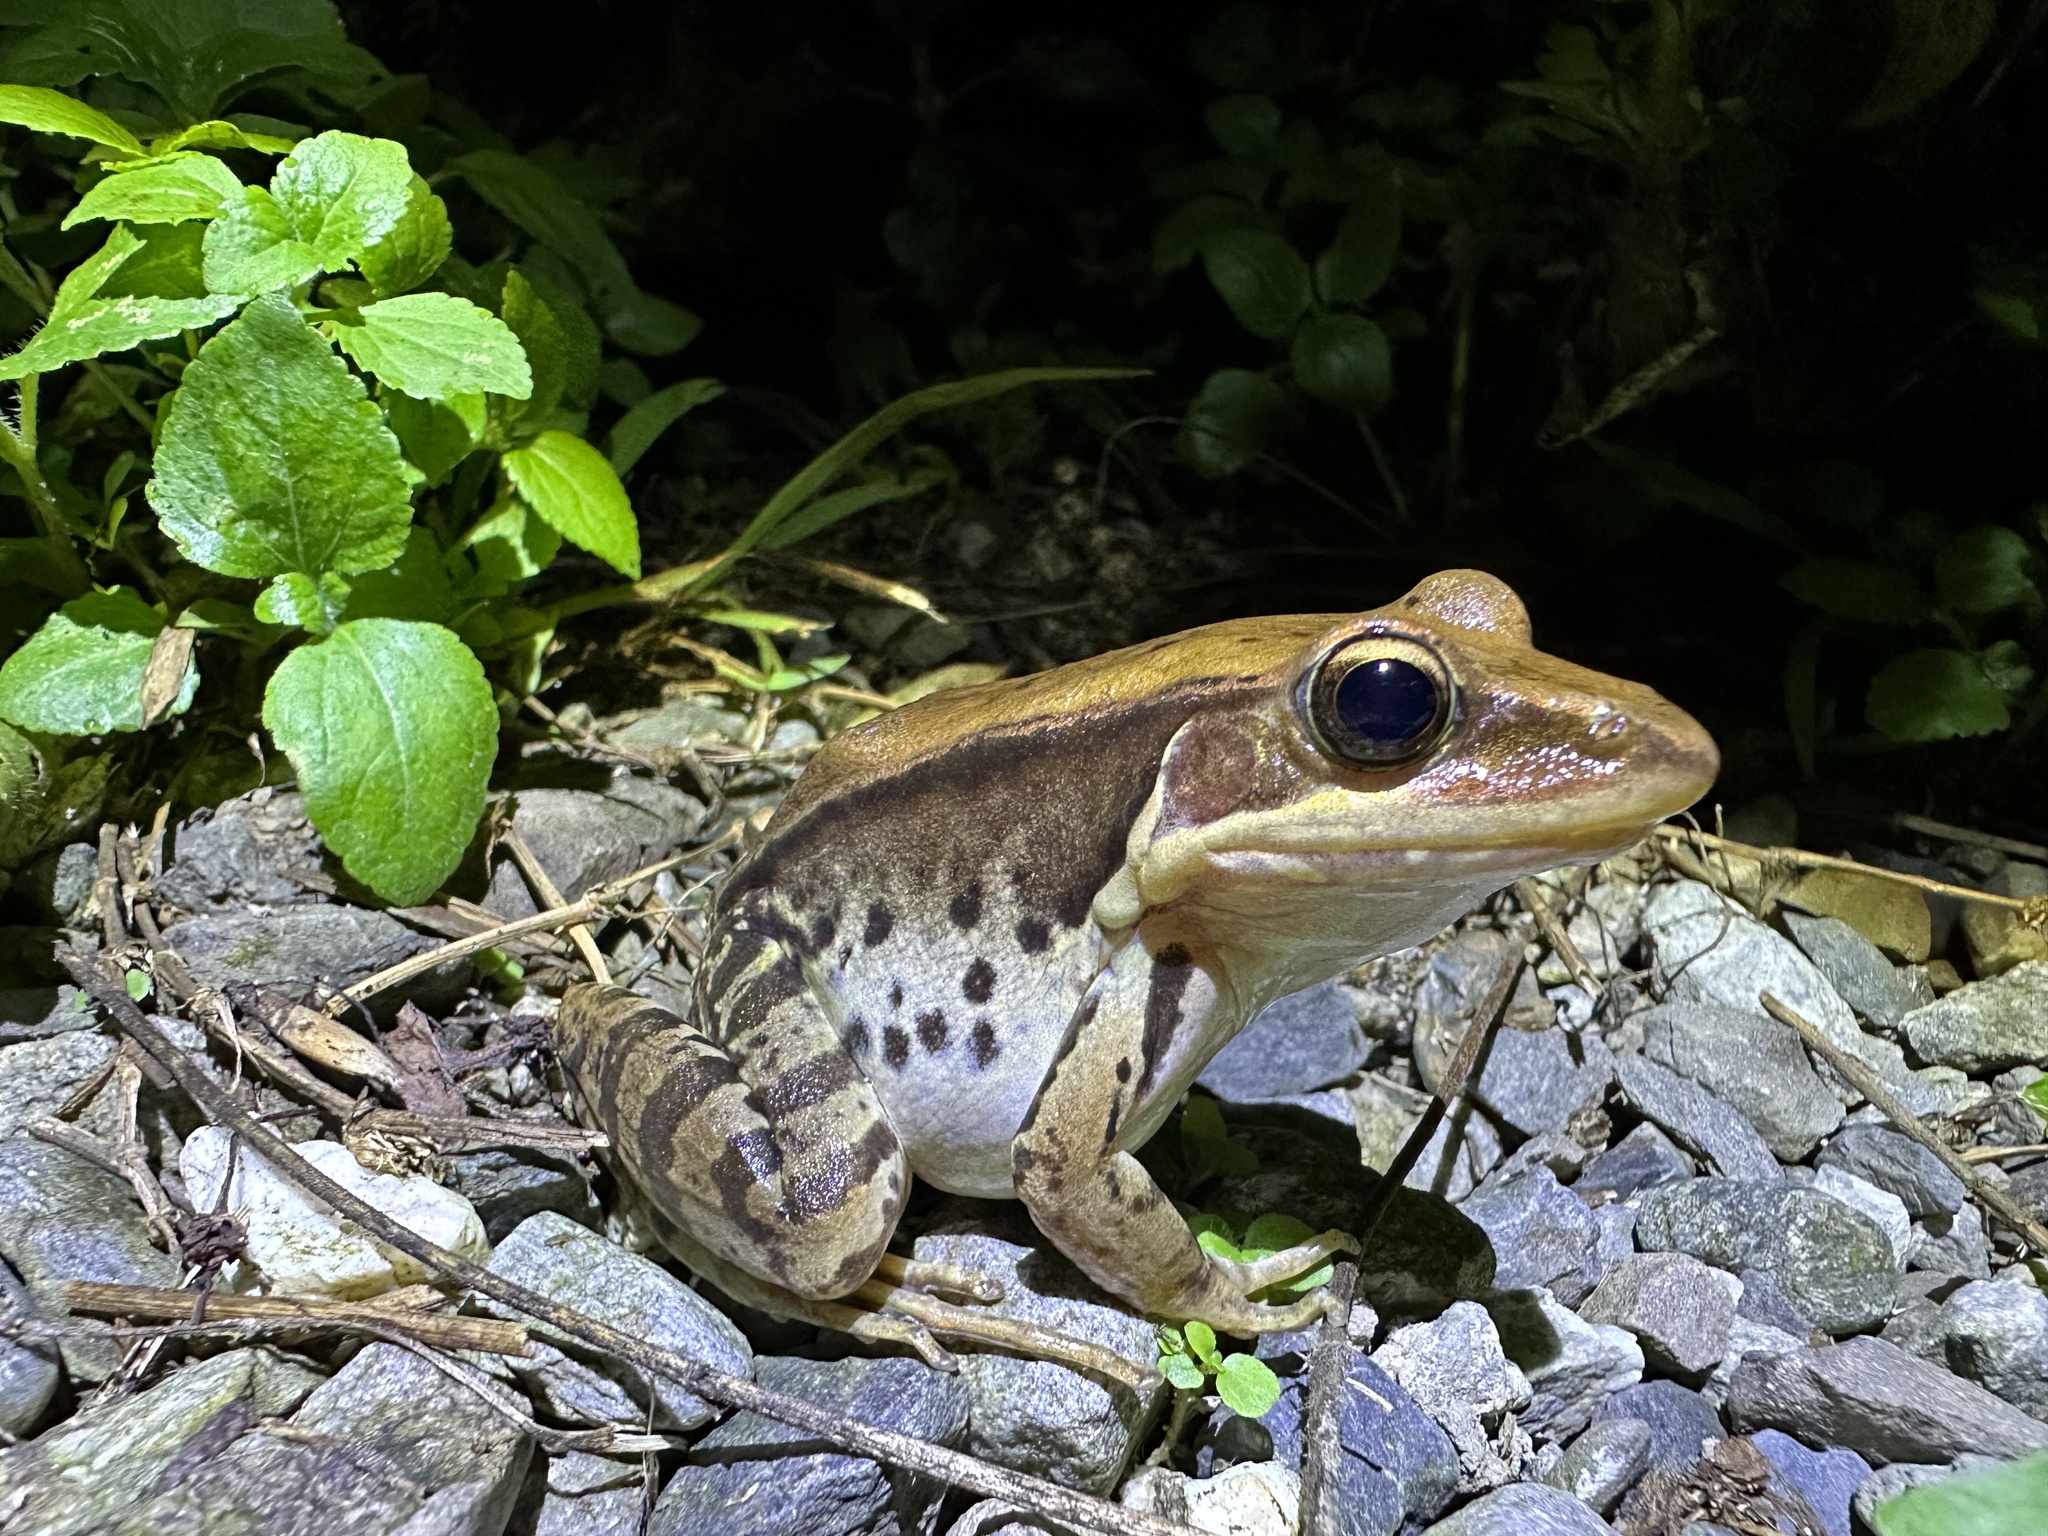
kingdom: Animalia
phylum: Chordata
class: Amphibia
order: Anura
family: Ranidae
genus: Sylvirana
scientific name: Sylvirana guentheri
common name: Guenther's amoy frog
